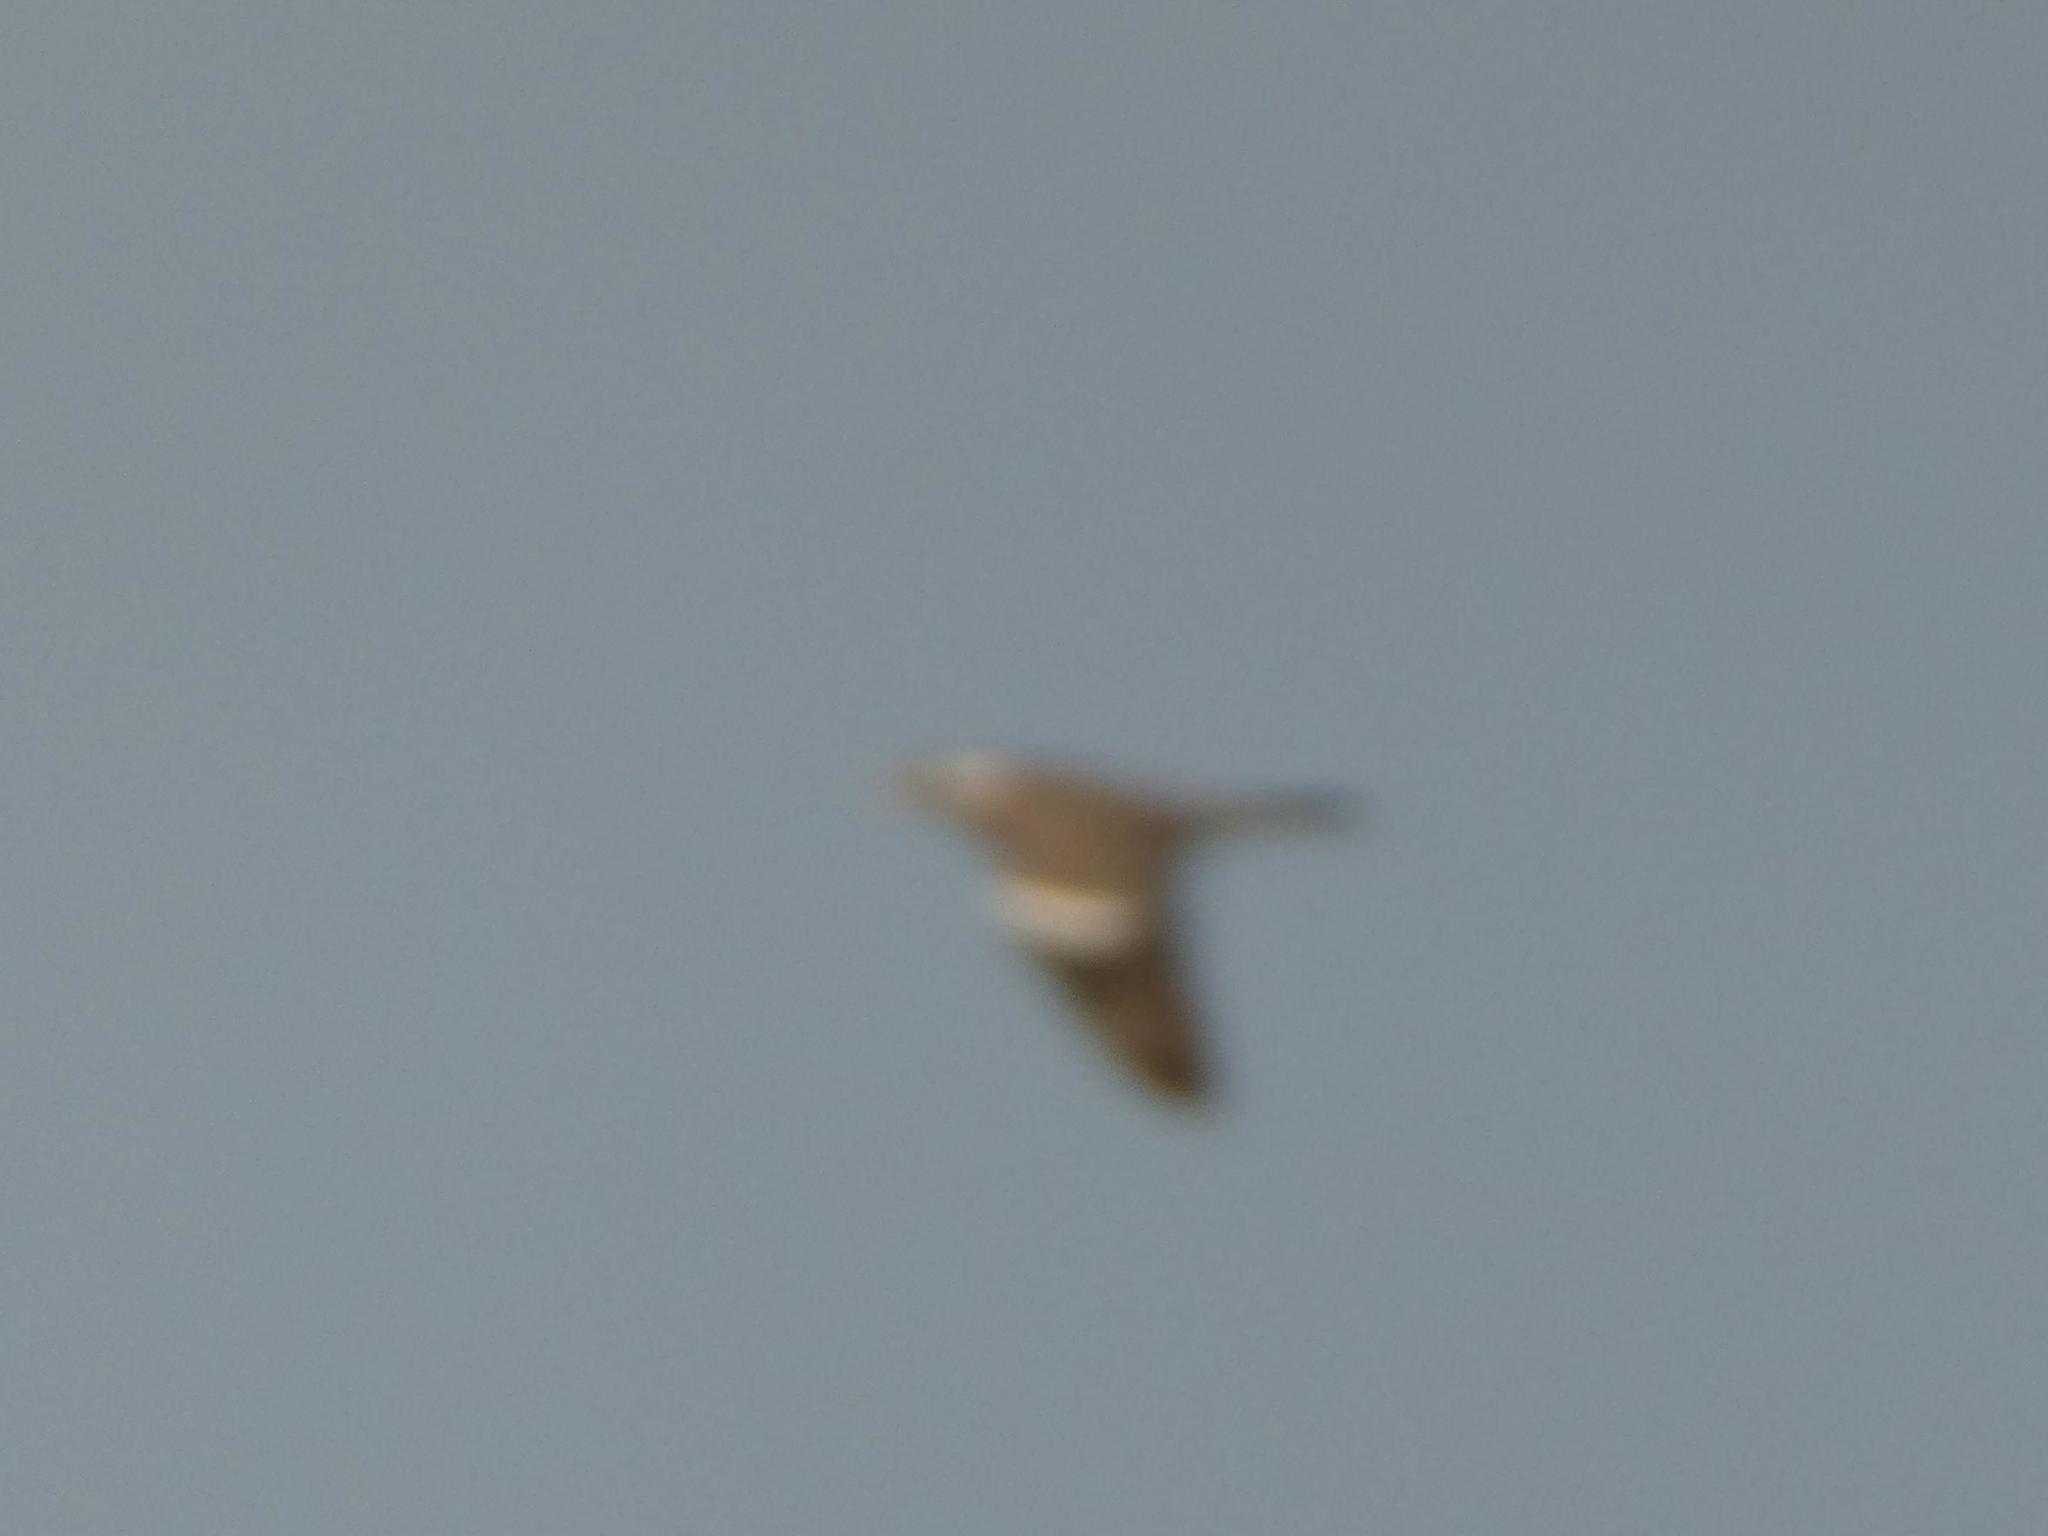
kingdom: Animalia
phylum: Chordata
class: Aves
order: Columbiformes
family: Columbidae
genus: Columba
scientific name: Columba palumbus
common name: Common wood pigeon
